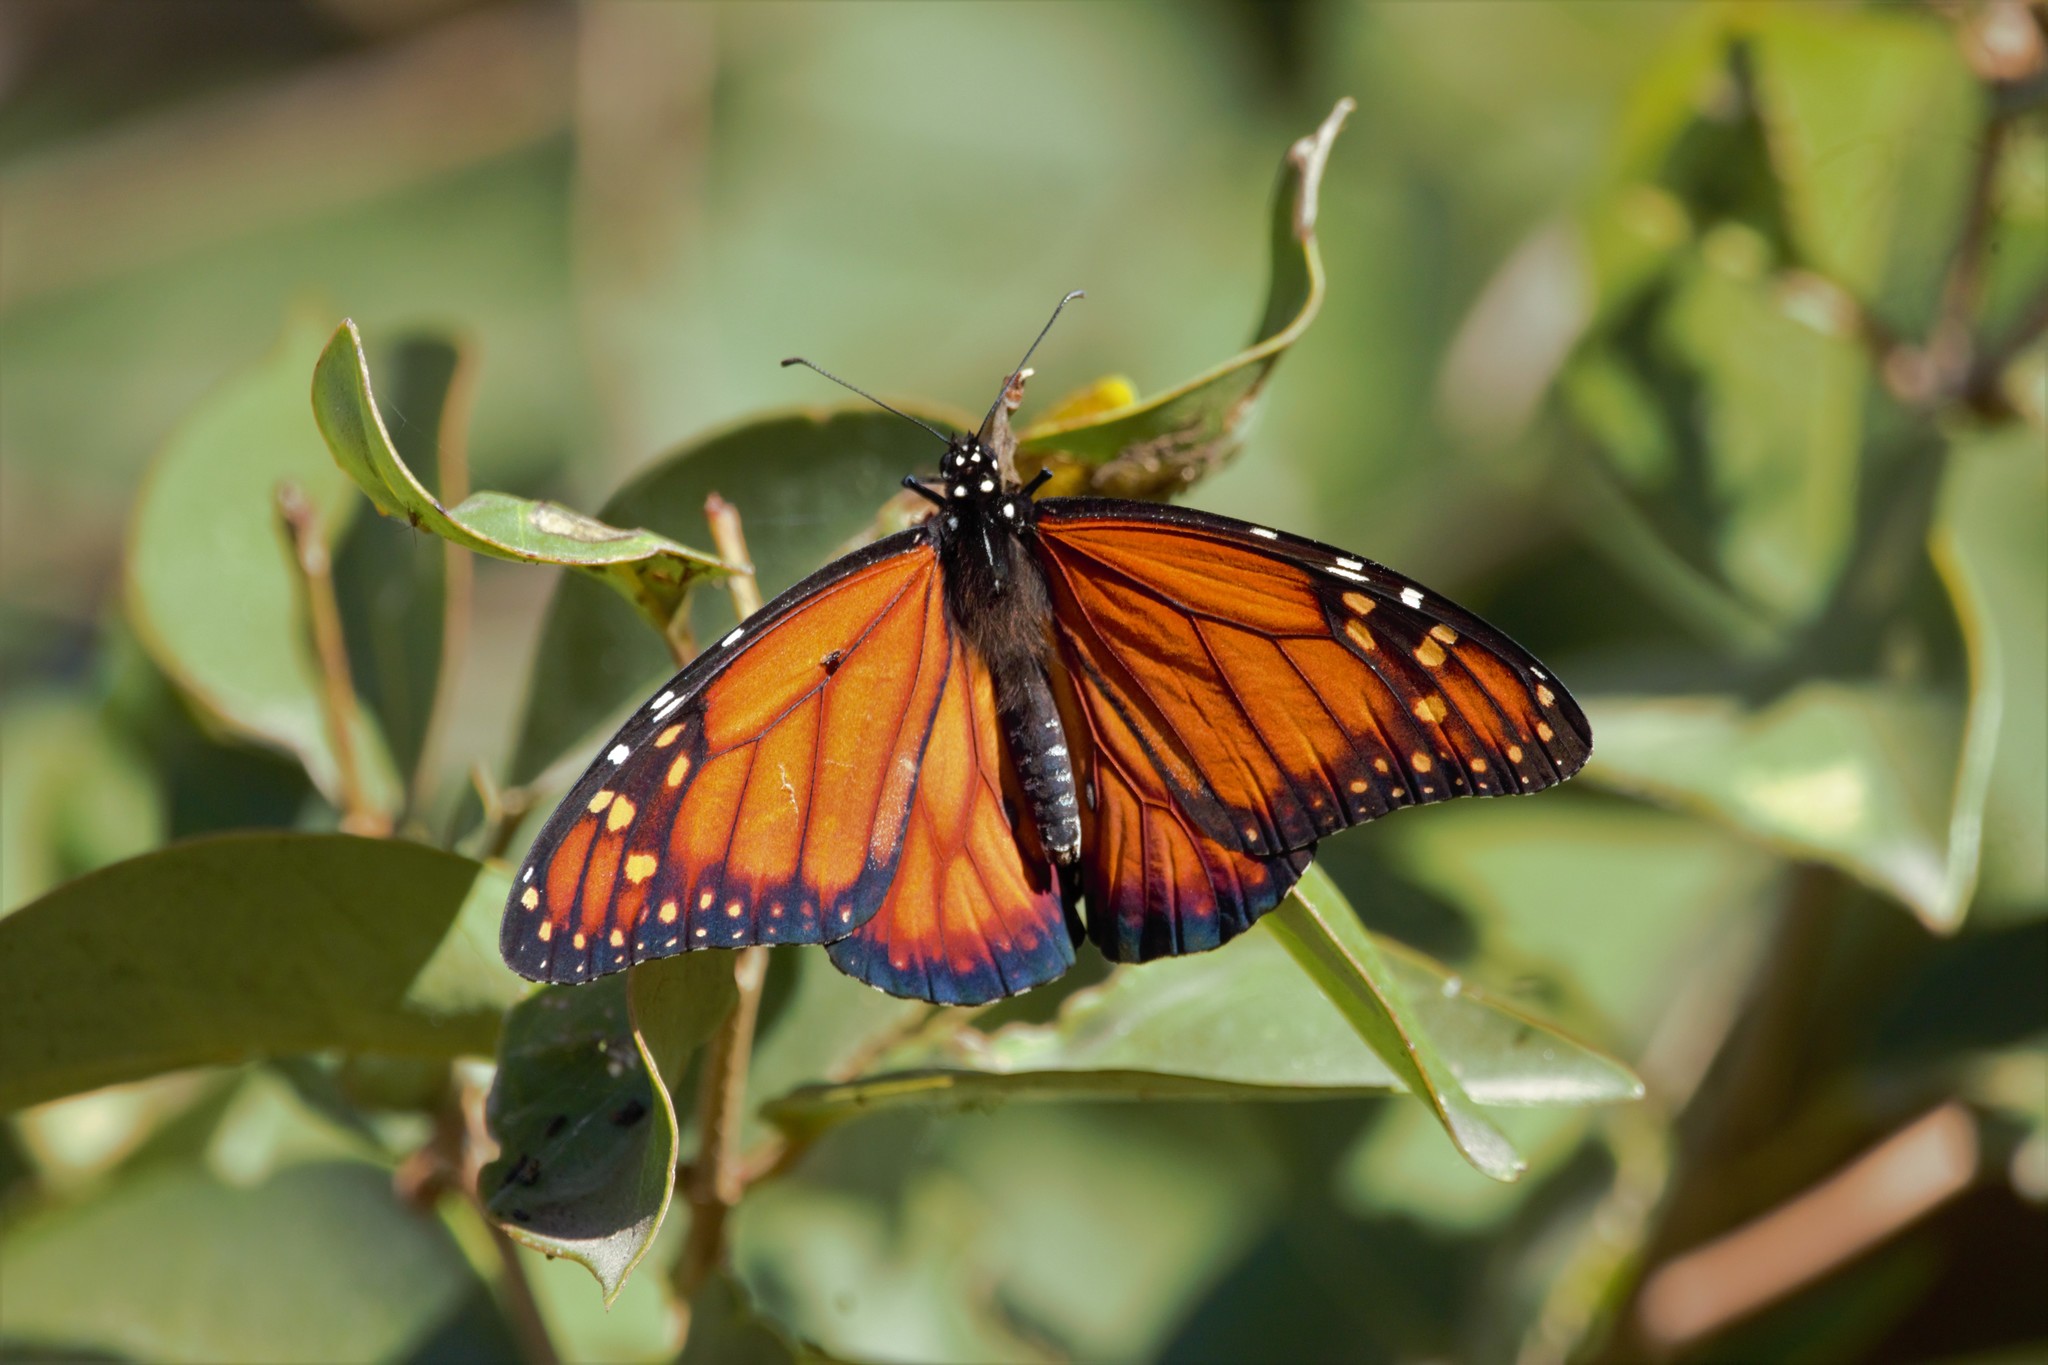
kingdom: Animalia
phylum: Arthropoda
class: Insecta
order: Lepidoptera
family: Nymphalidae
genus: Danaus
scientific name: Danaus erippus
